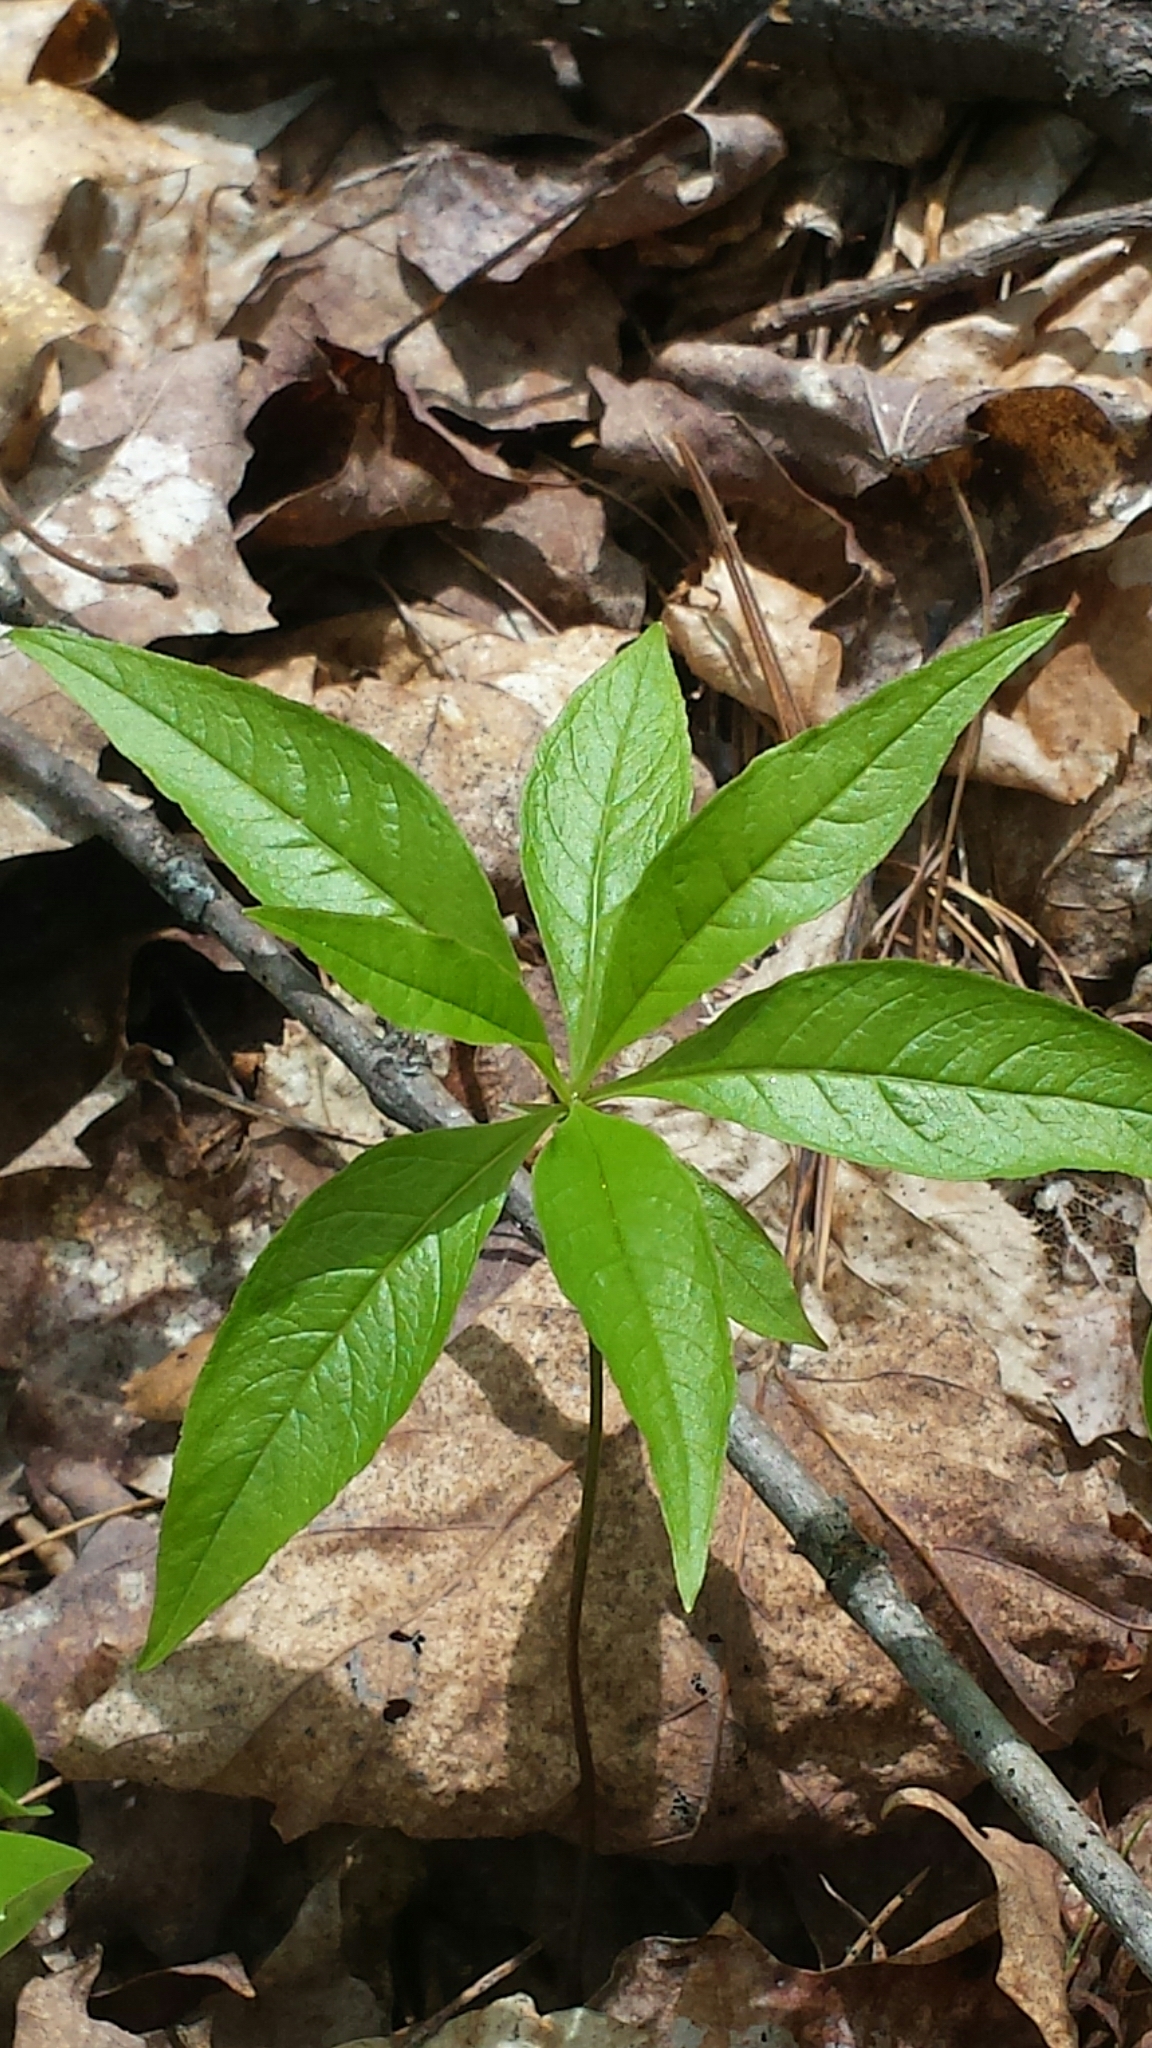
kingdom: Plantae
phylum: Tracheophyta
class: Magnoliopsida
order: Ericales
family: Primulaceae
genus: Lysimachia
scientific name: Lysimachia borealis
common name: American starflower
